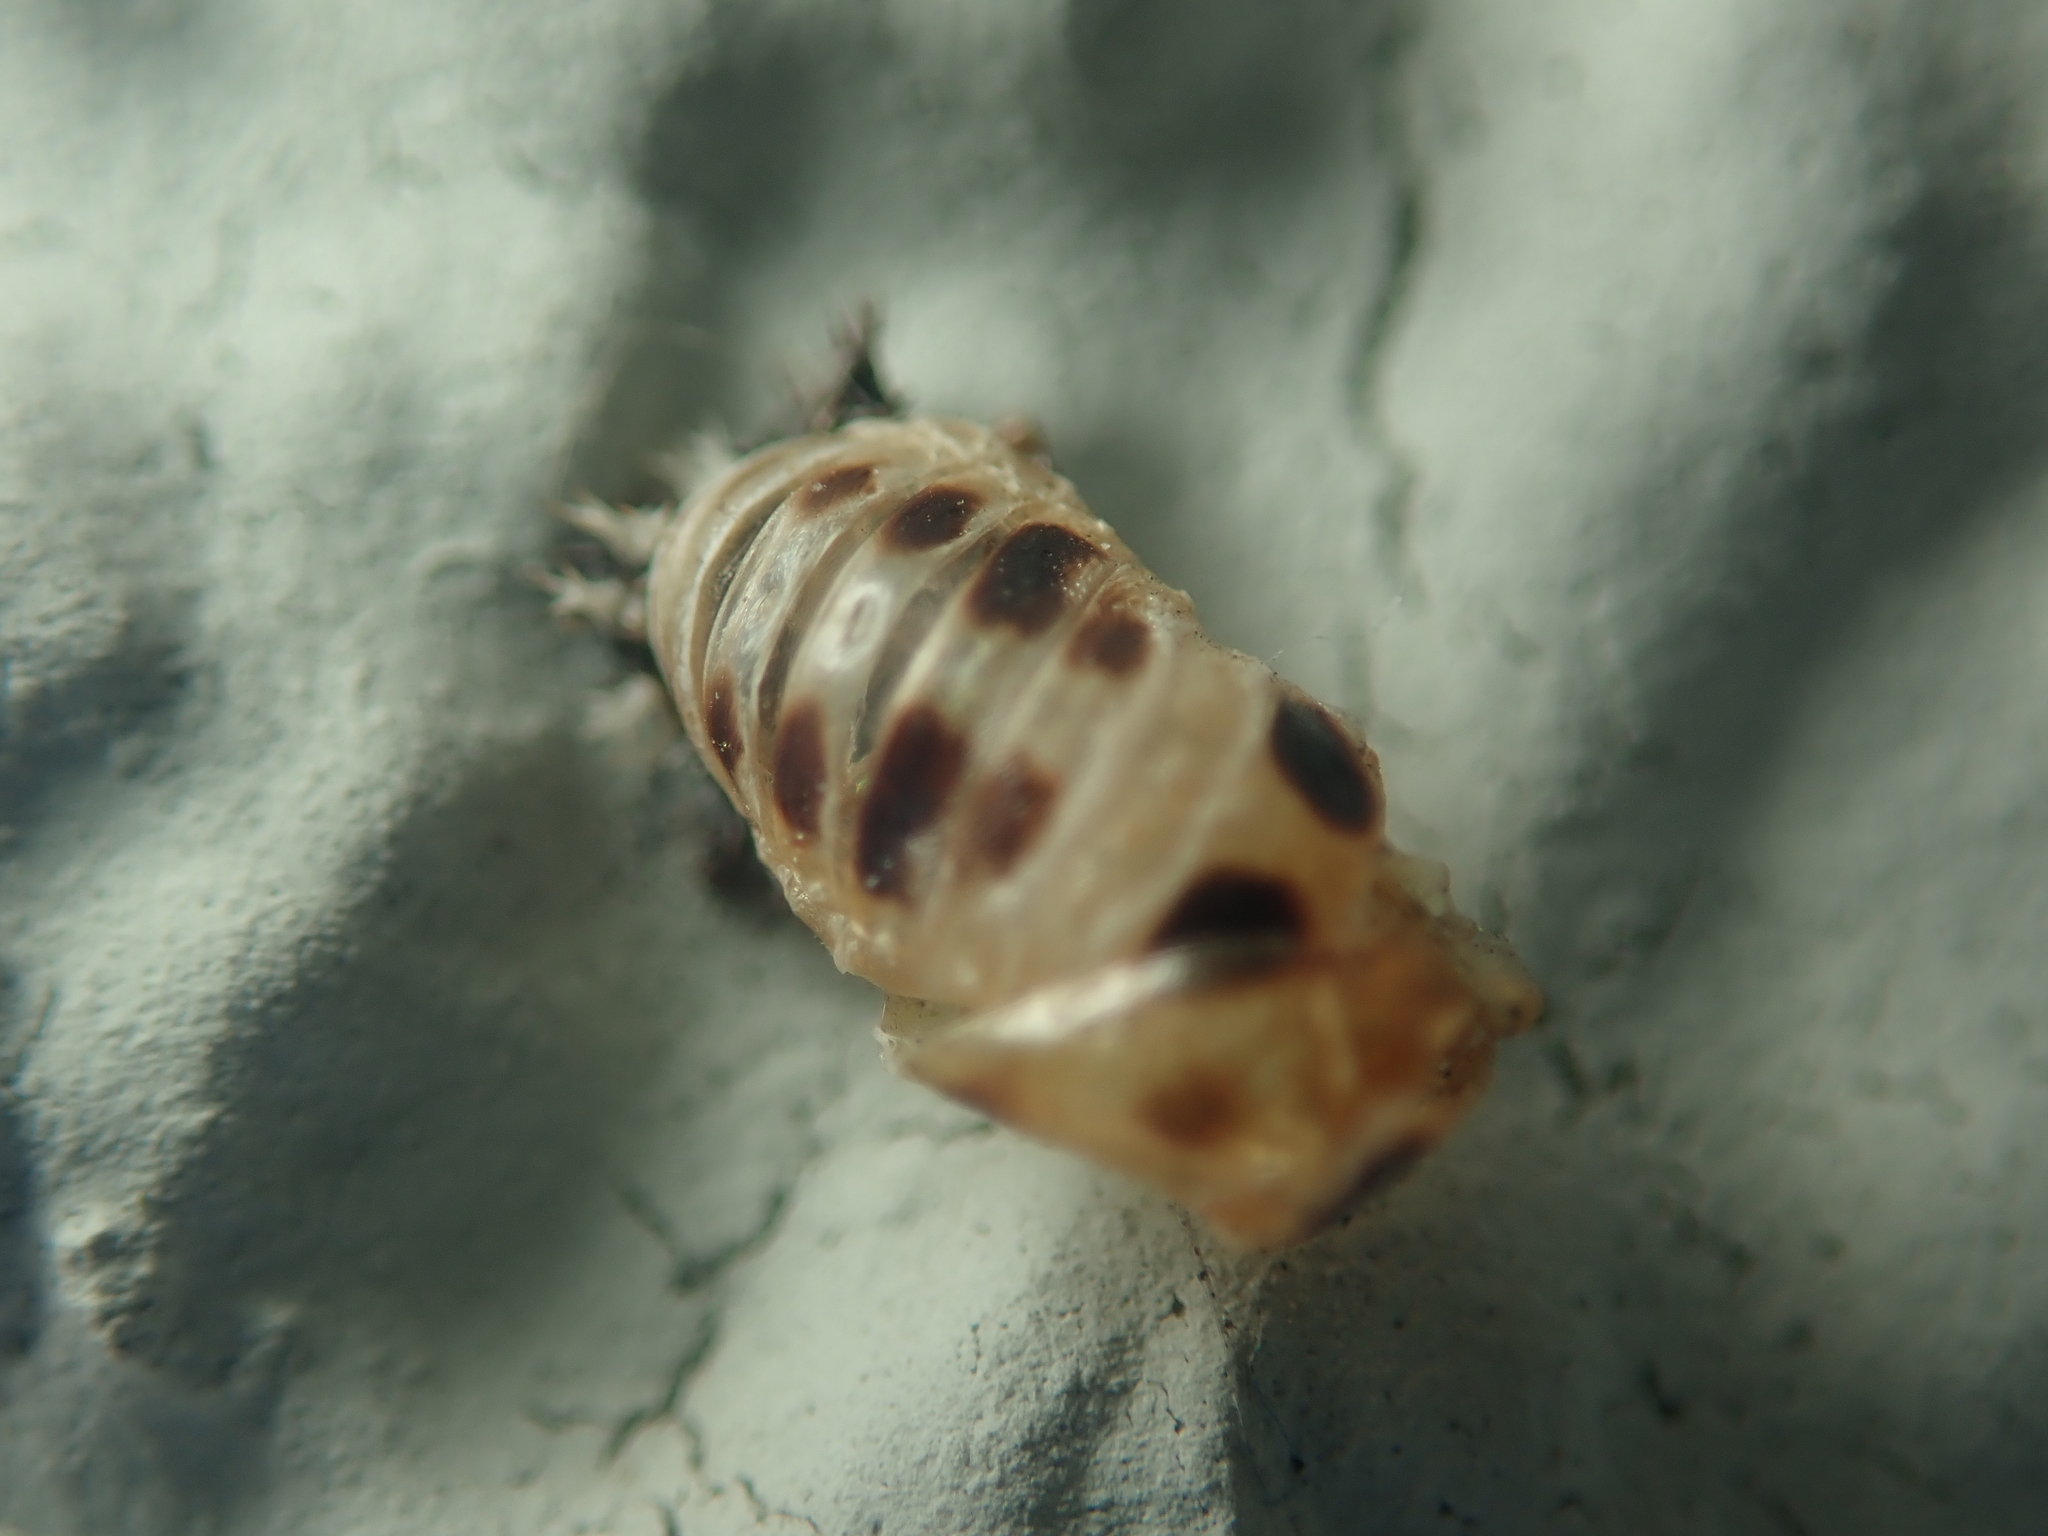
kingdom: Animalia
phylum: Arthropoda
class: Insecta
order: Coleoptera
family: Coccinellidae
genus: Harmonia
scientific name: Harmonia axyridis
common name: Harlequin ladybird
